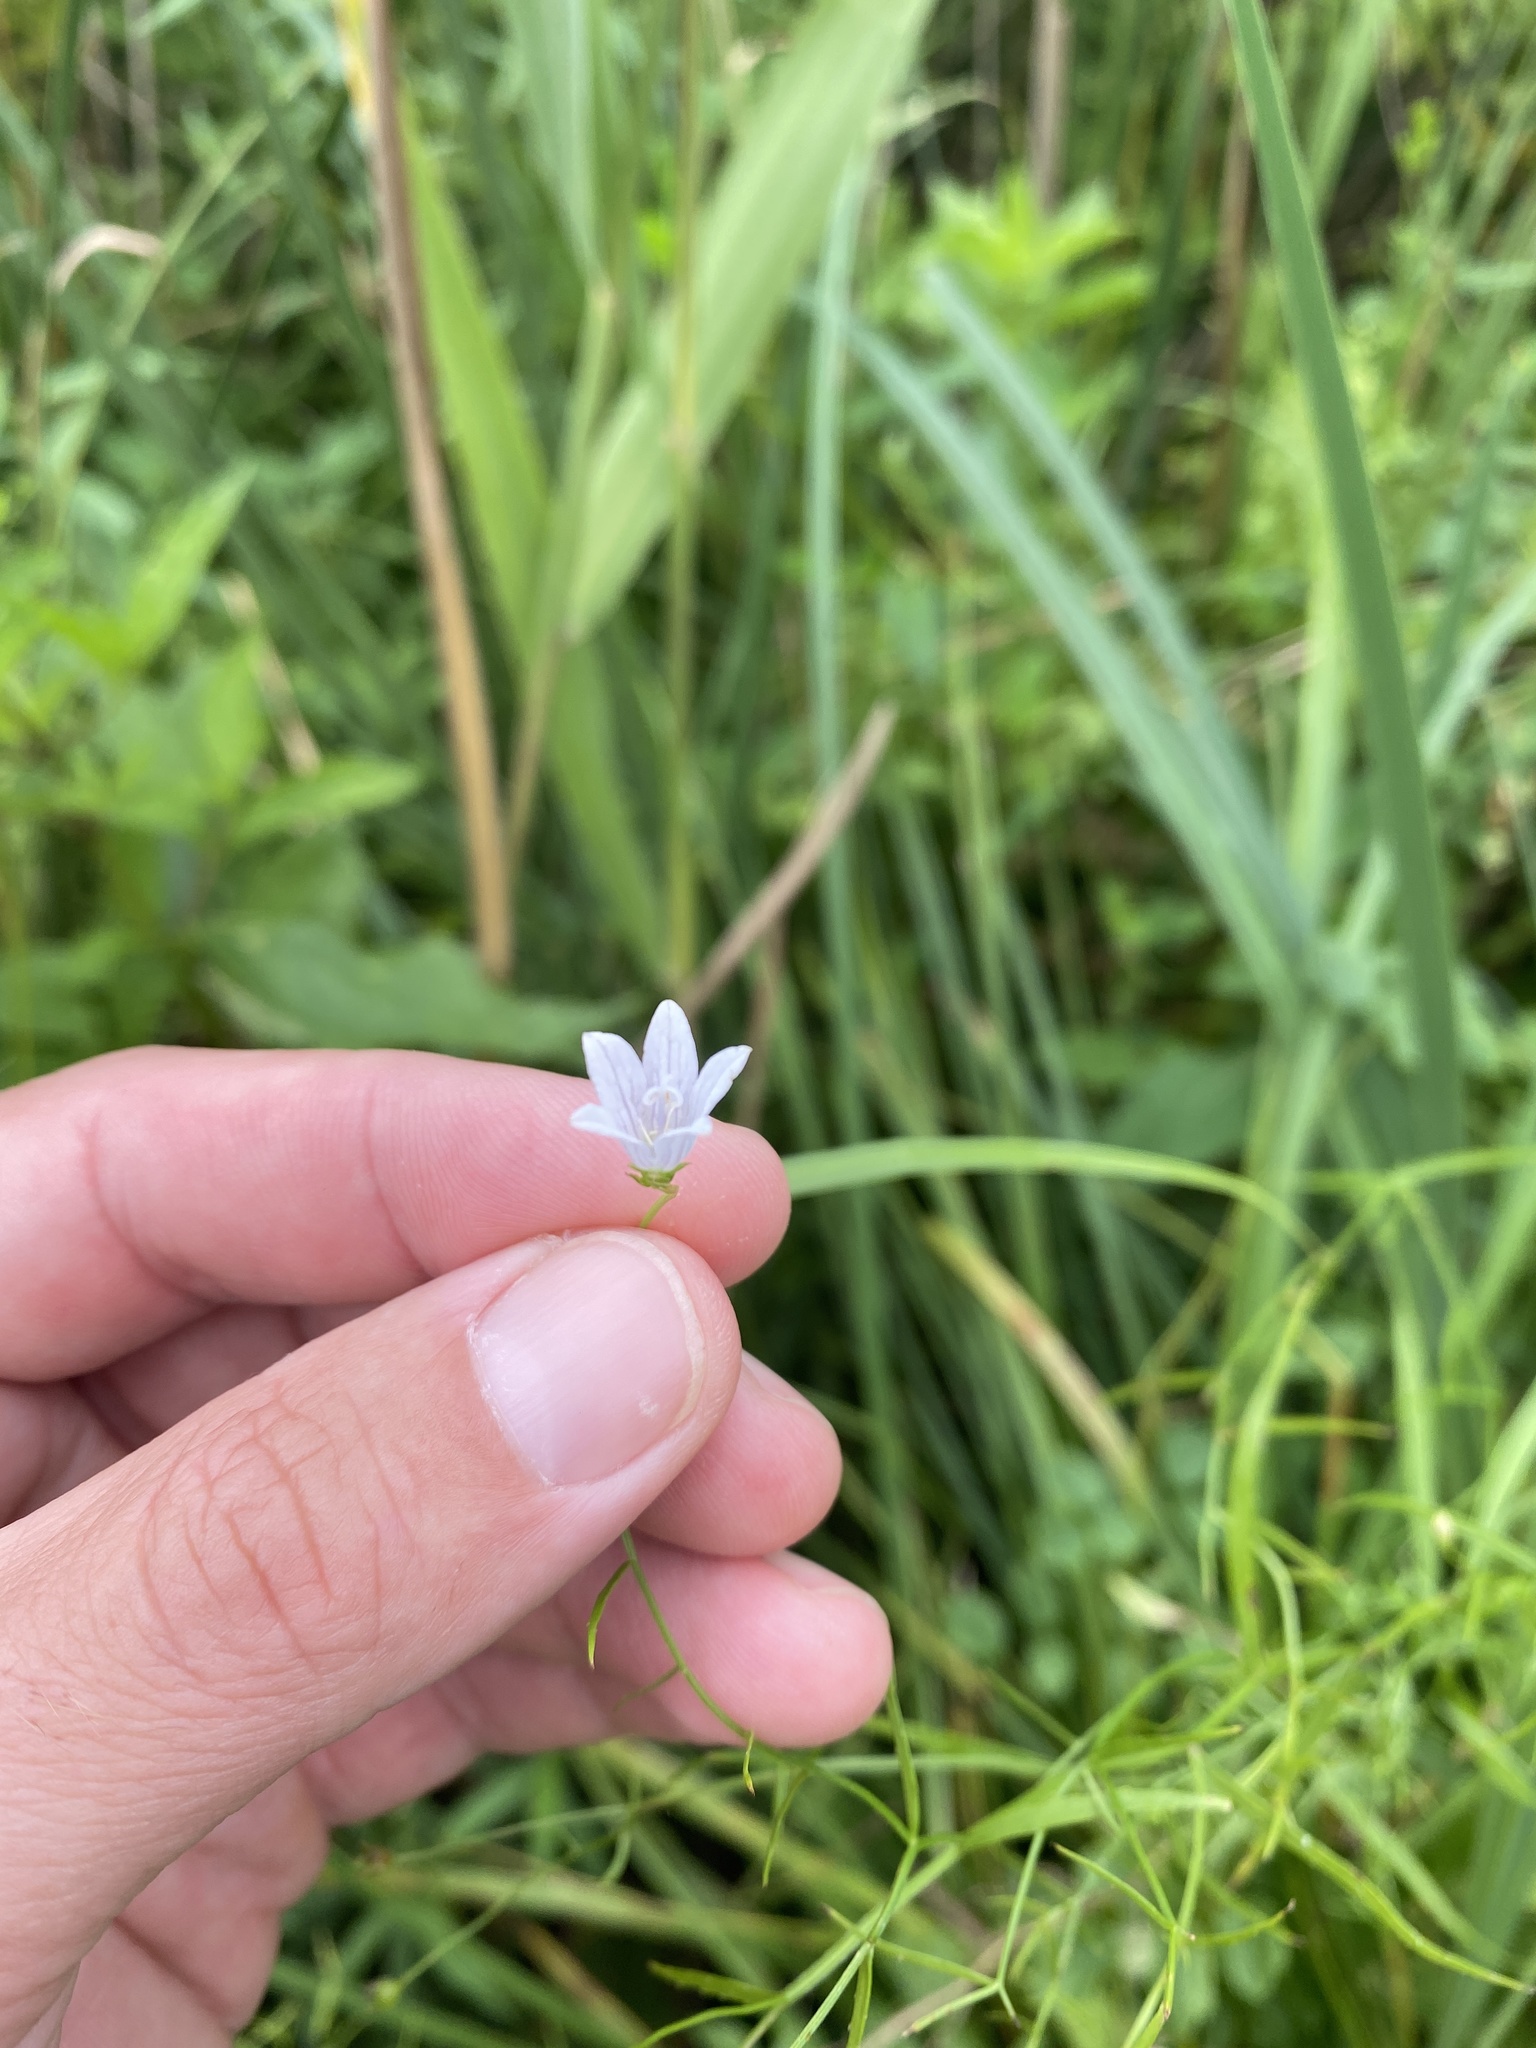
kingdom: Plantae
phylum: Tracheophyta
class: Magnoliopsida
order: Asterales
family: Campanulaceae
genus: Palustricodon
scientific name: Palustricodon aparinoides
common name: Bedstraw bellflower
